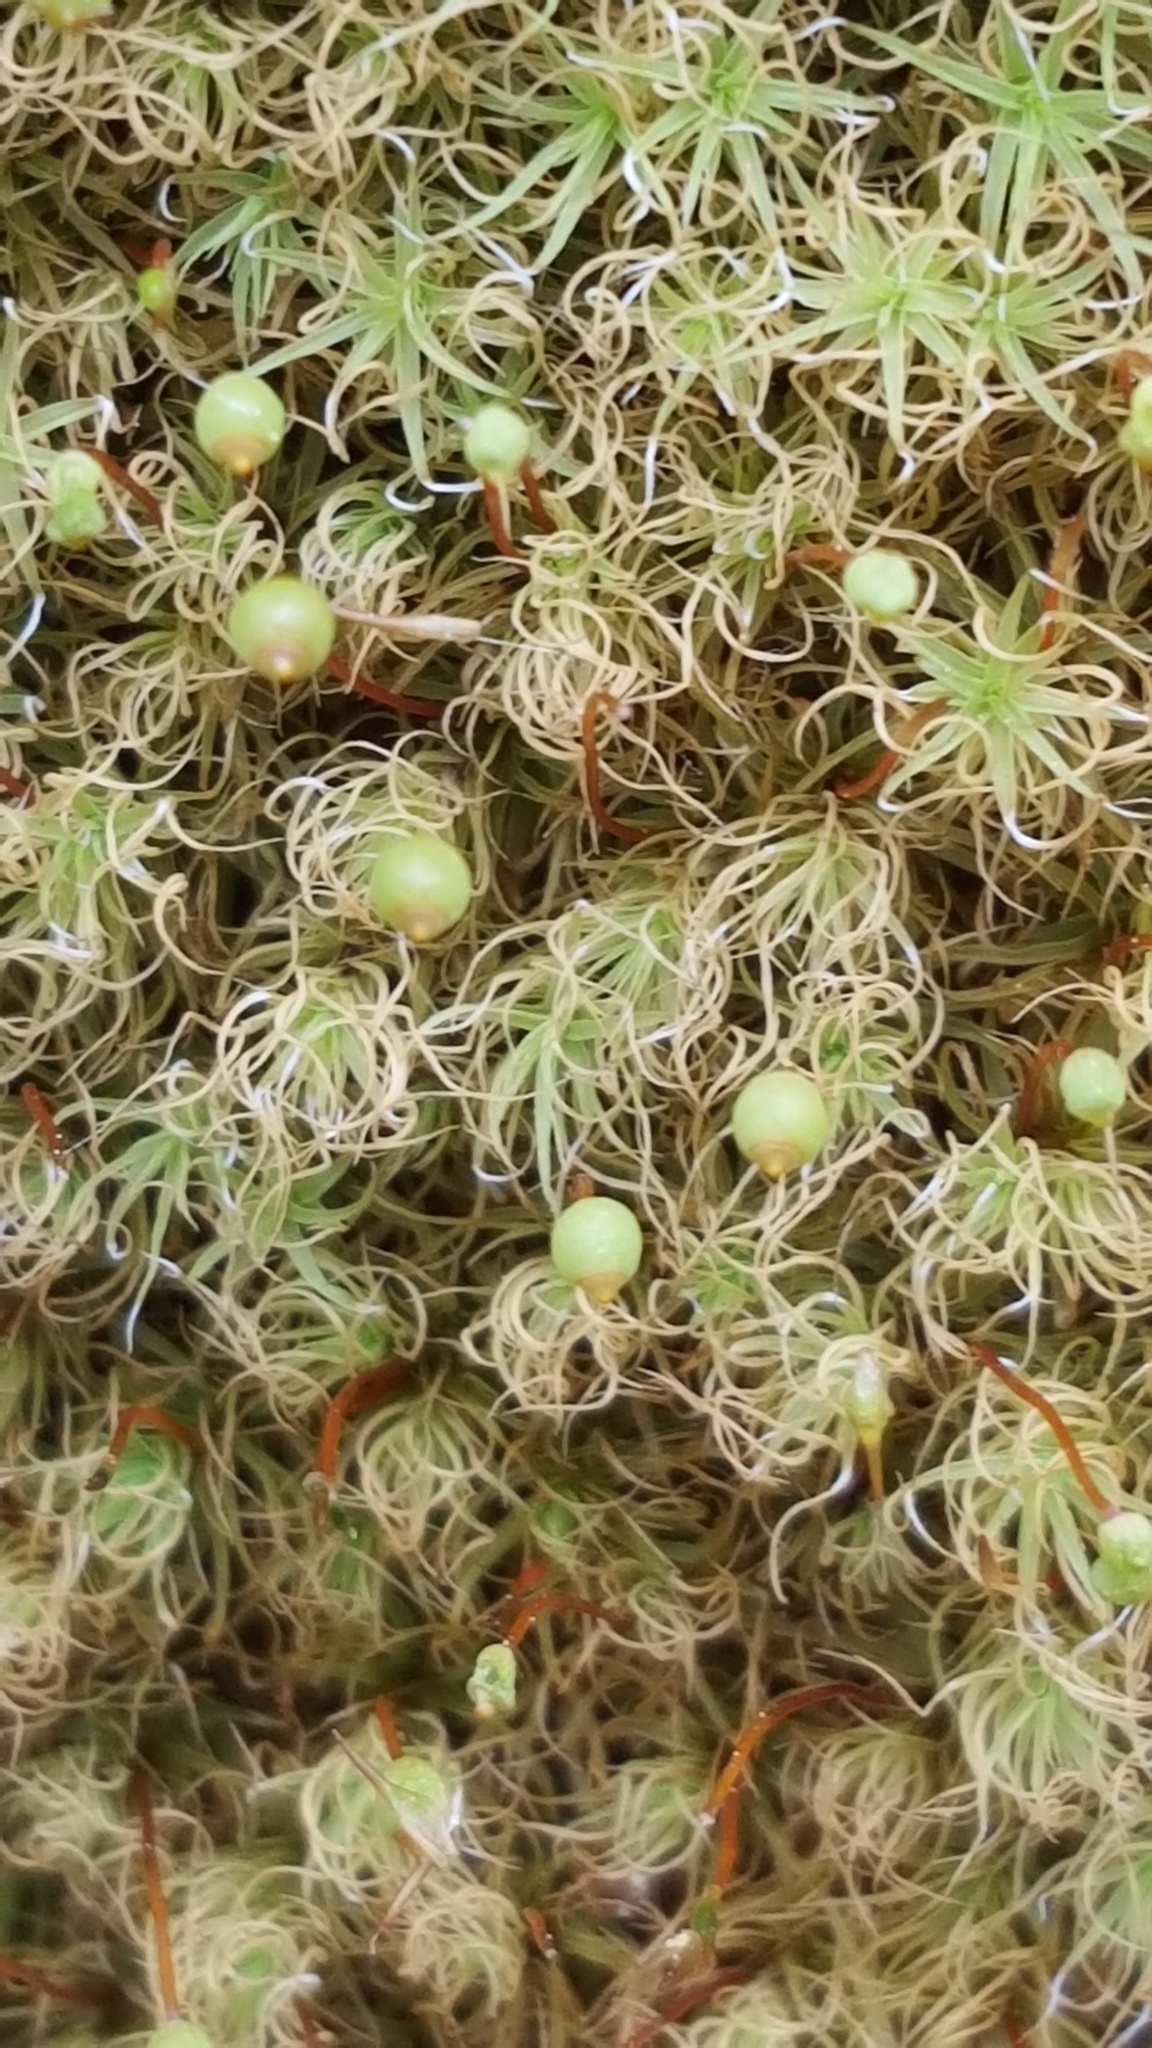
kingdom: Plantae
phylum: Bryophyta
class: Bryopsida
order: Bartramiales
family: Bartramiaceae
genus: Bartramia
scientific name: Bartramia ithyphylla
